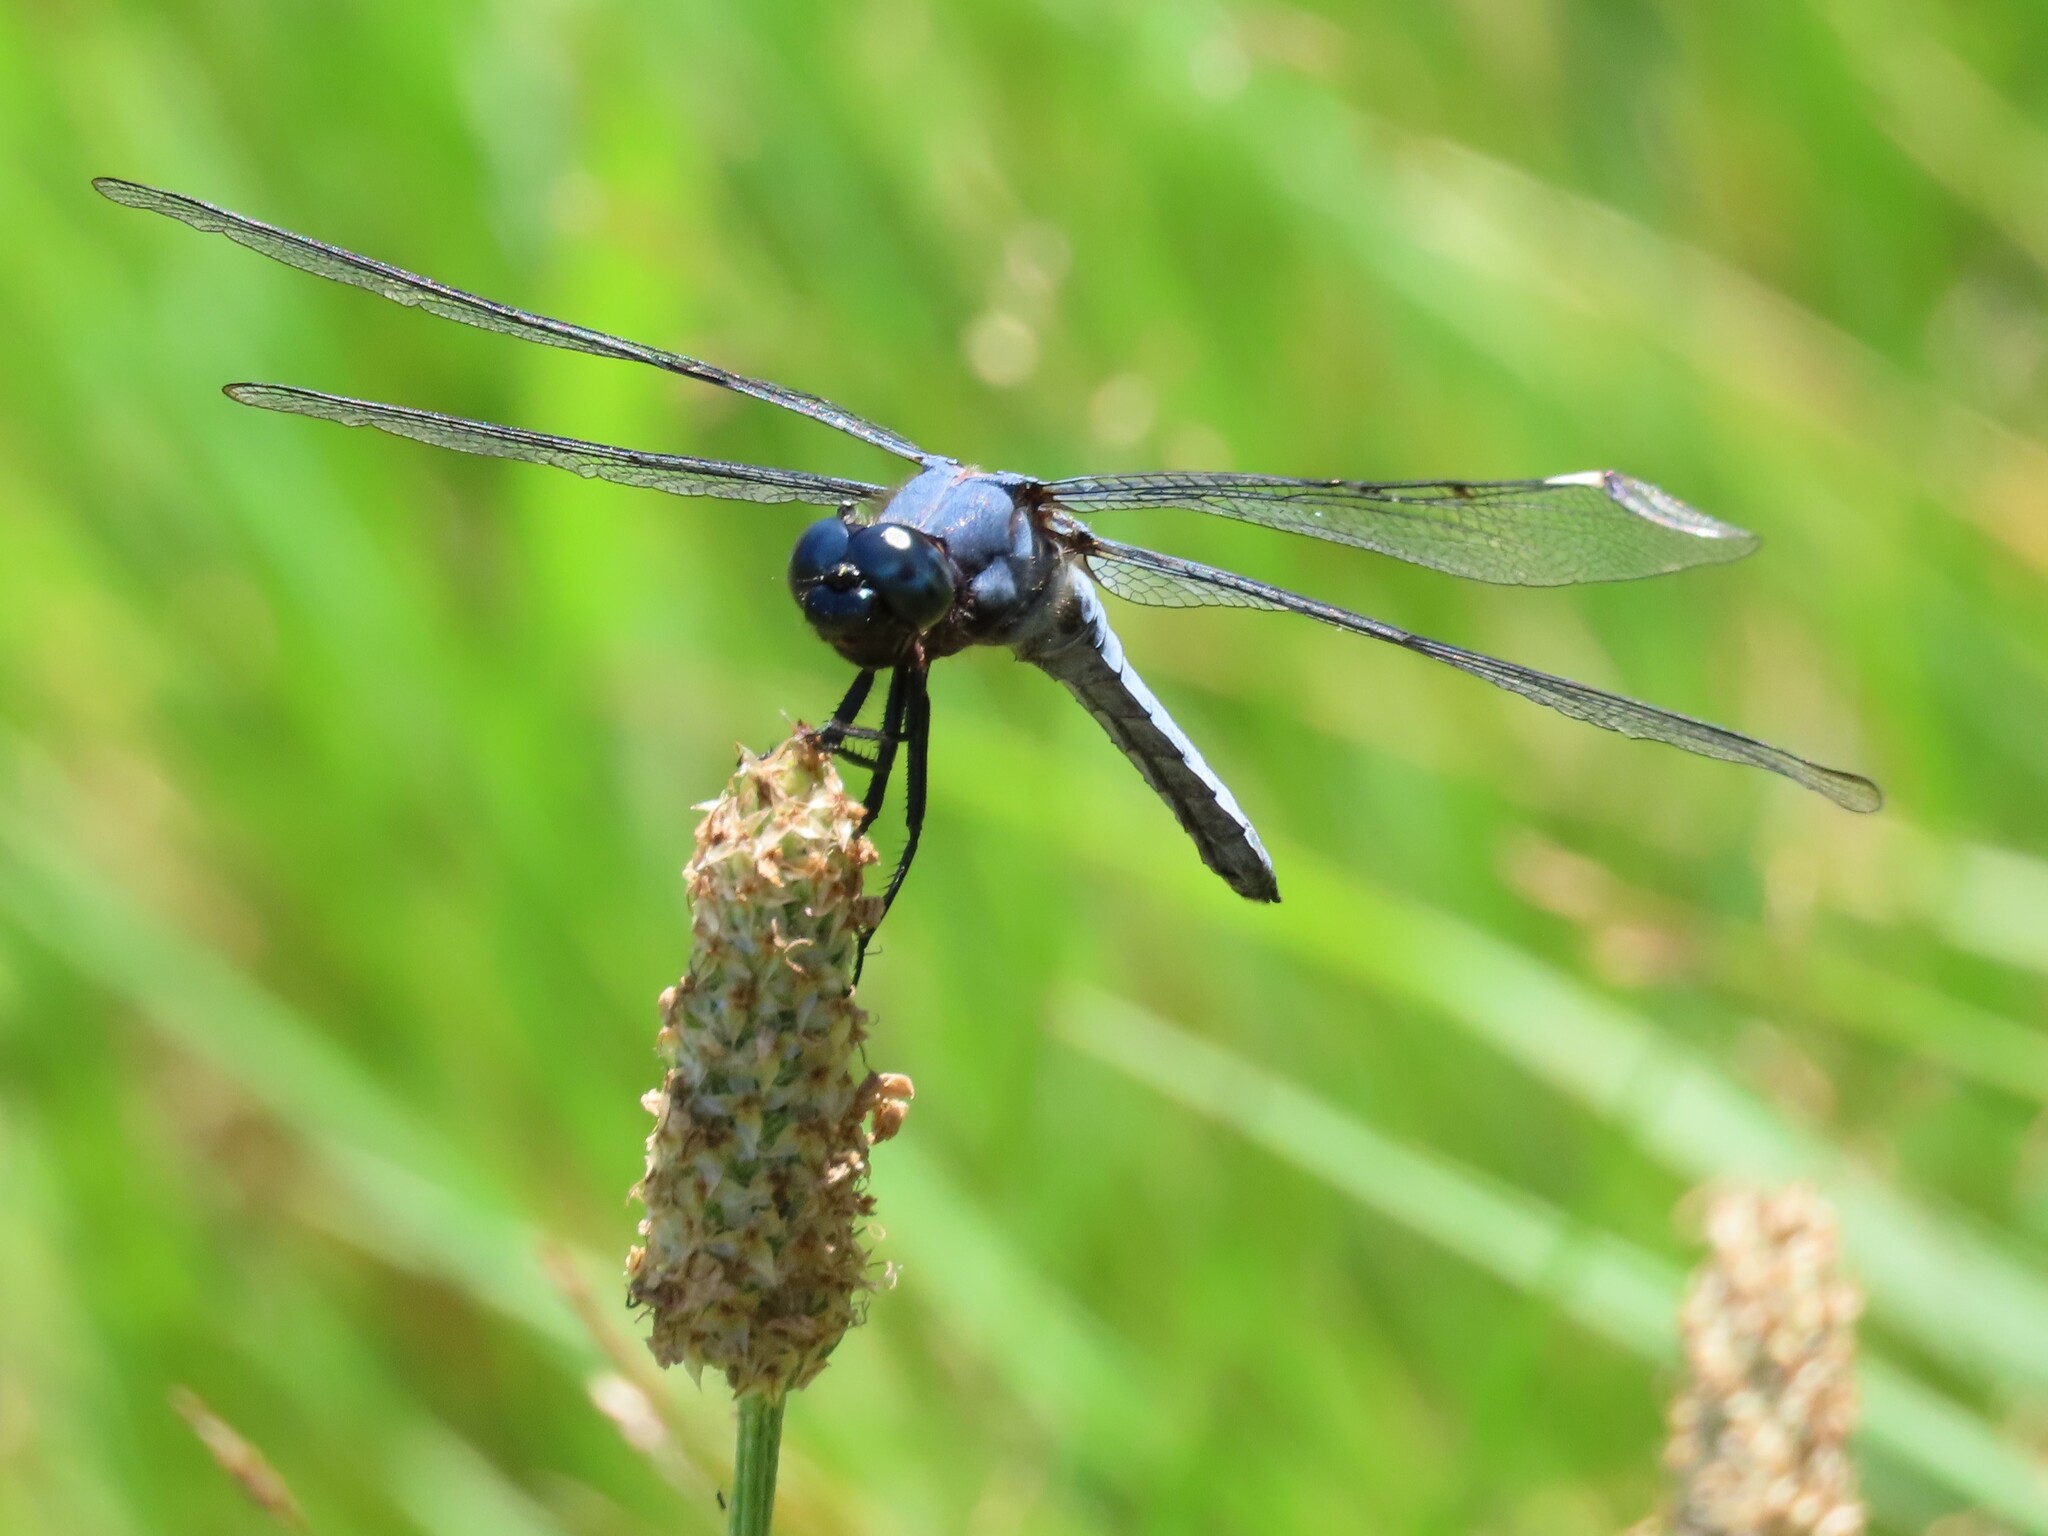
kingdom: Animalia
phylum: Arthropoda
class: Insecta
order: Odonata
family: Libellulidae
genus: Libellula
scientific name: Libellula cyanea
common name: Spangled skimmer
